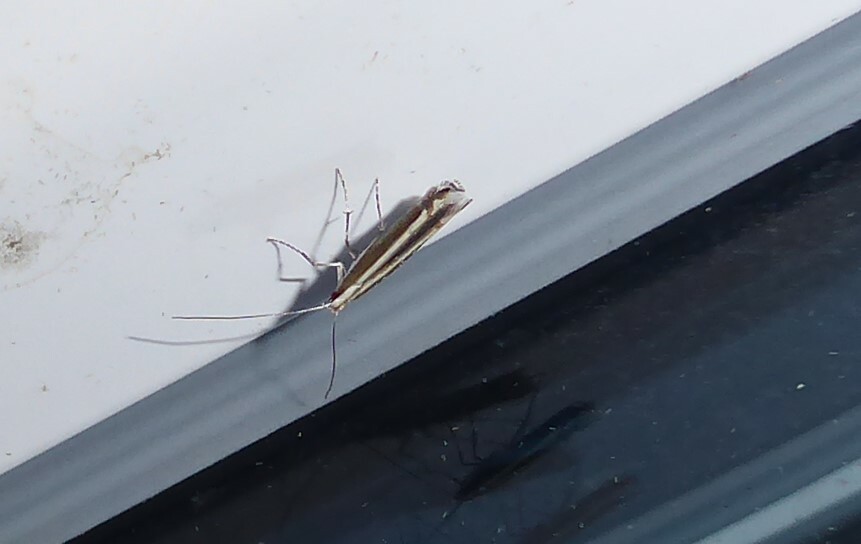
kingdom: Animalia
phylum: Arthropoda
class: Insecta
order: Lepidoptera
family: Gracillariidae
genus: Acrocercops
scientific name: Acrocercops laciniella
